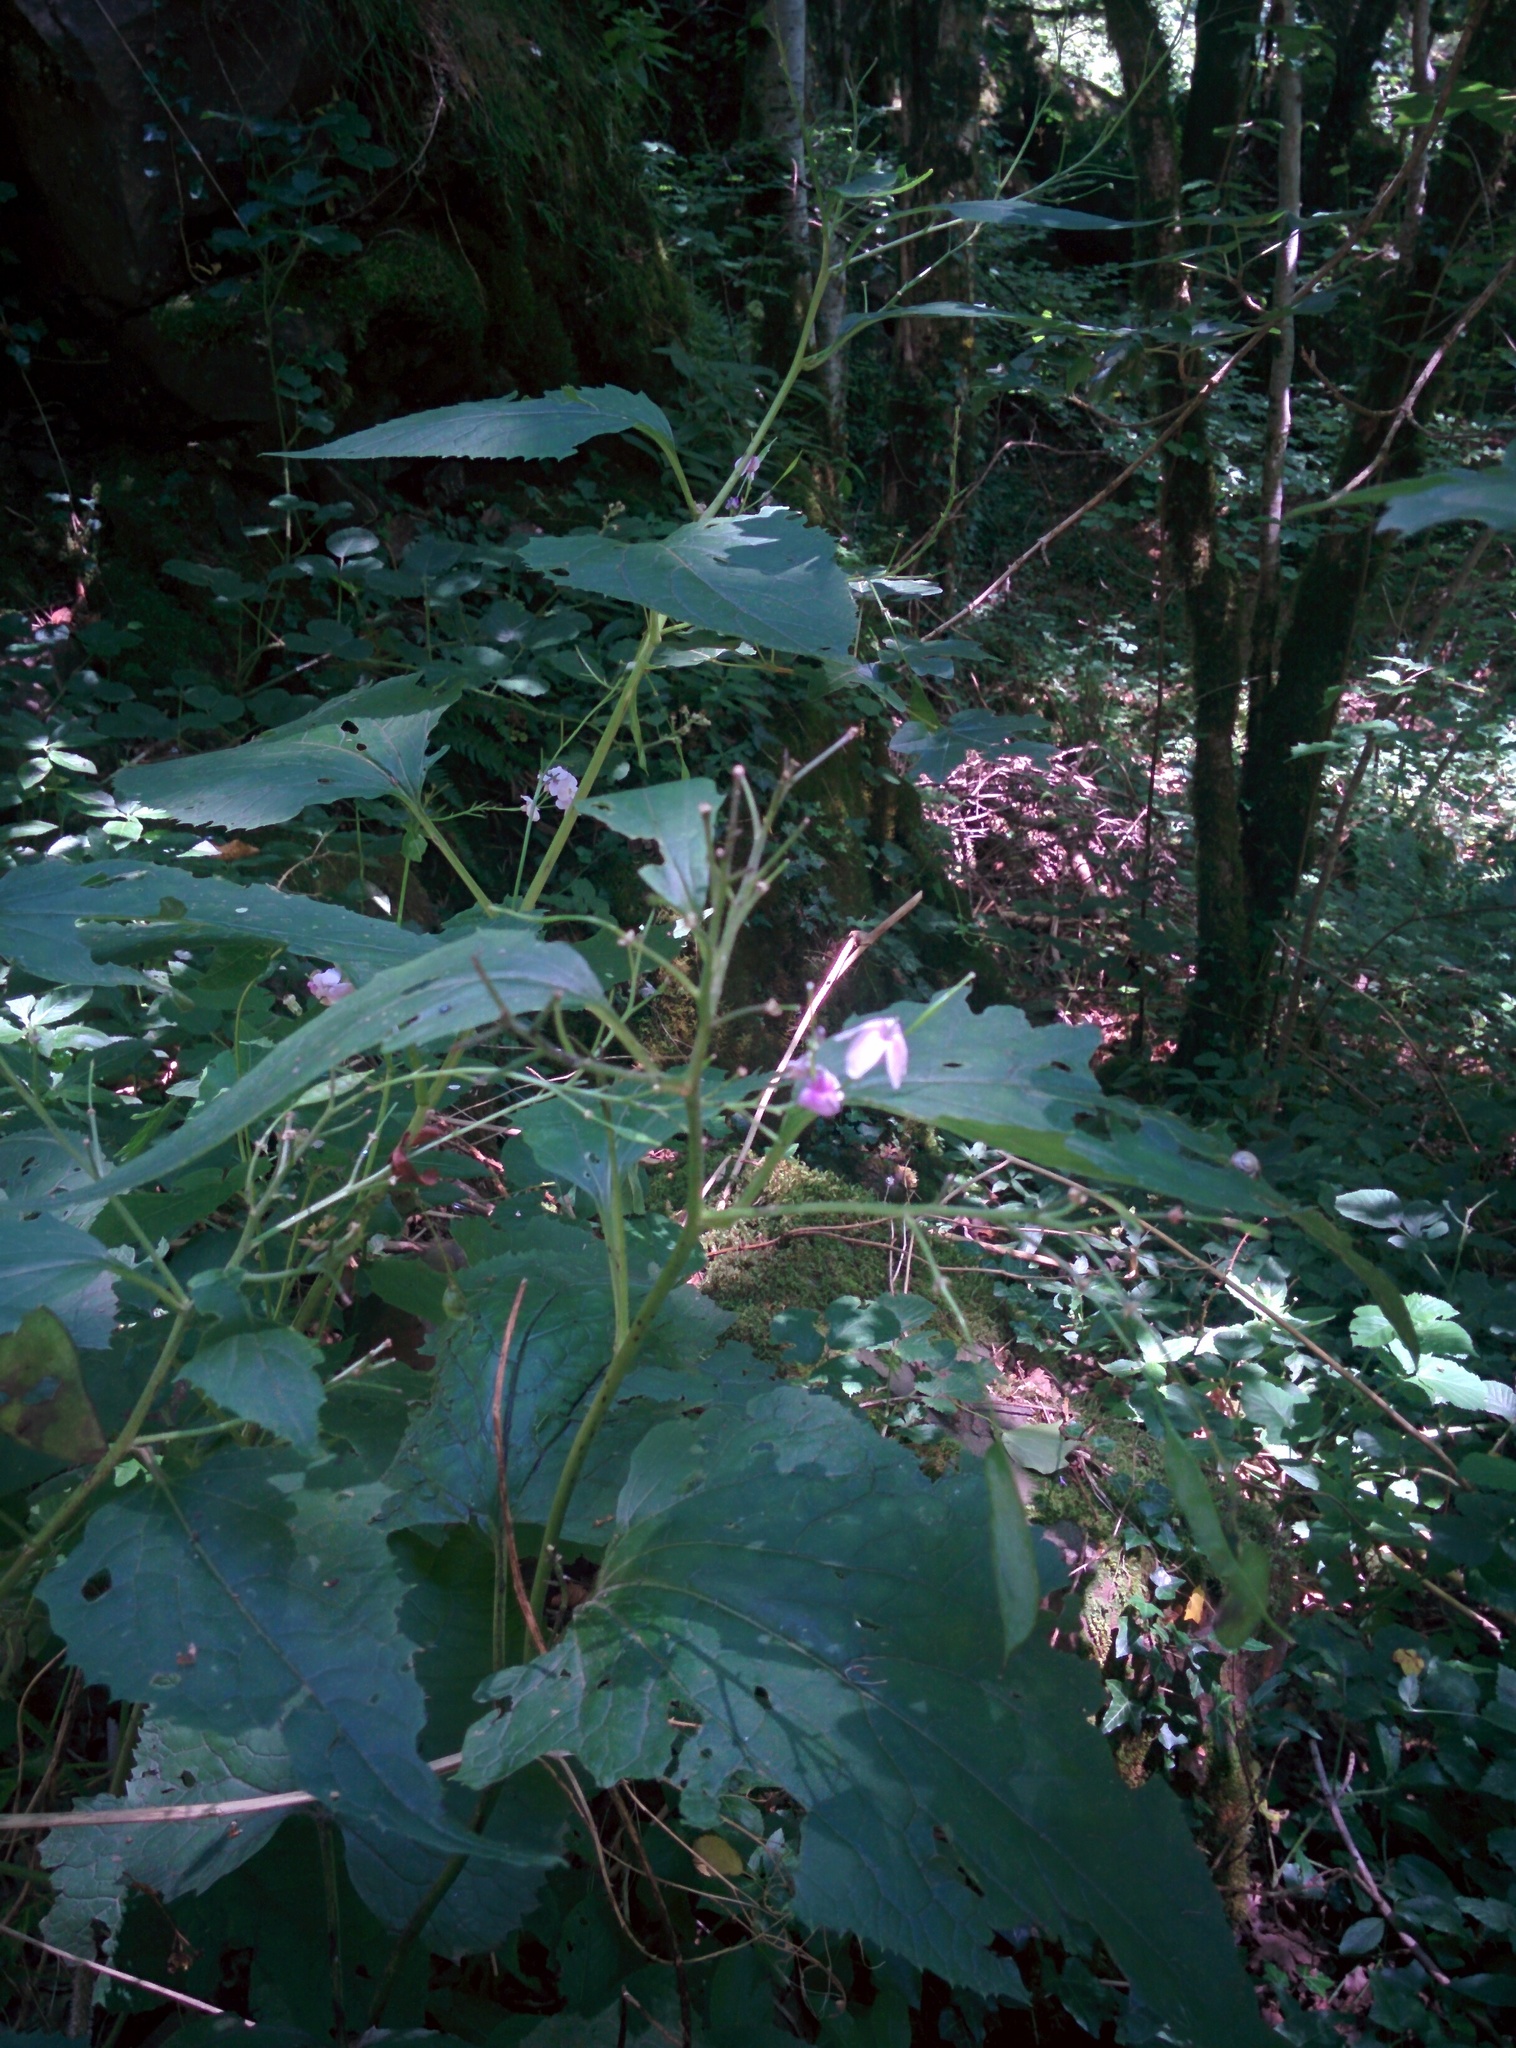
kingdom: Plantae
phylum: Tracheophyta
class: Magnoliopsida
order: Brassicales
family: Brassicaceae
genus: Lunaria
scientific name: Lunaria rediviva
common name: Perennial honesty
